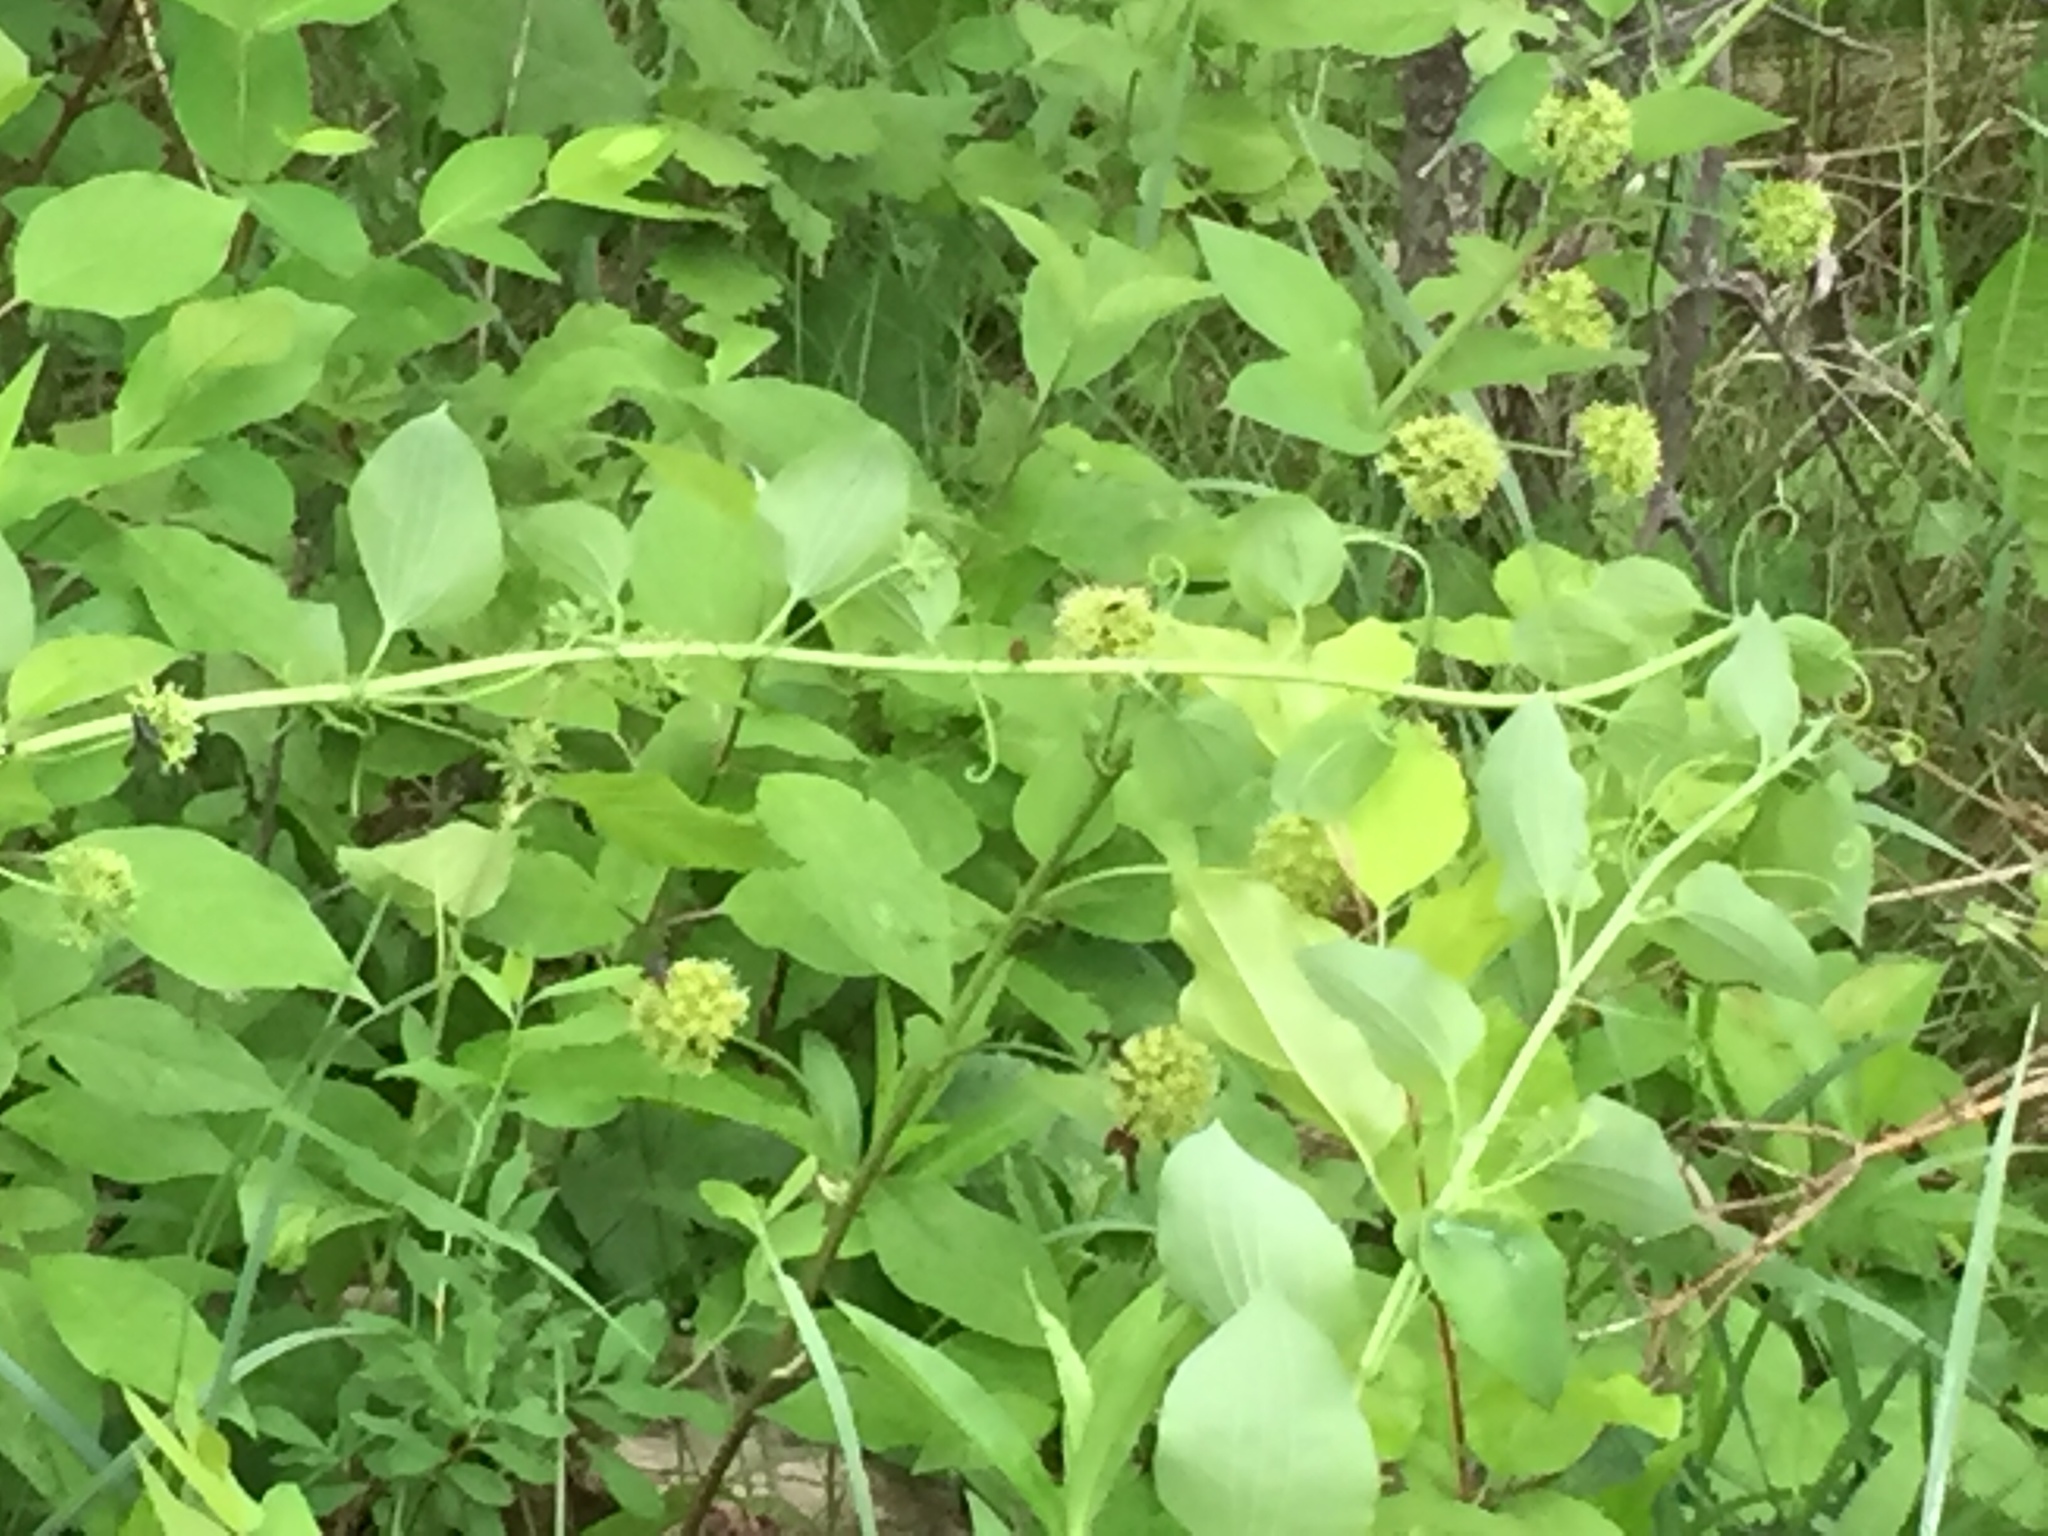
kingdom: Plantae
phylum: Tracheophyta
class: Liliopsida
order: Liliales
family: Smilacaceae
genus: Smilax
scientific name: Smilax lasioneura
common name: Blue ridge carrionflower
